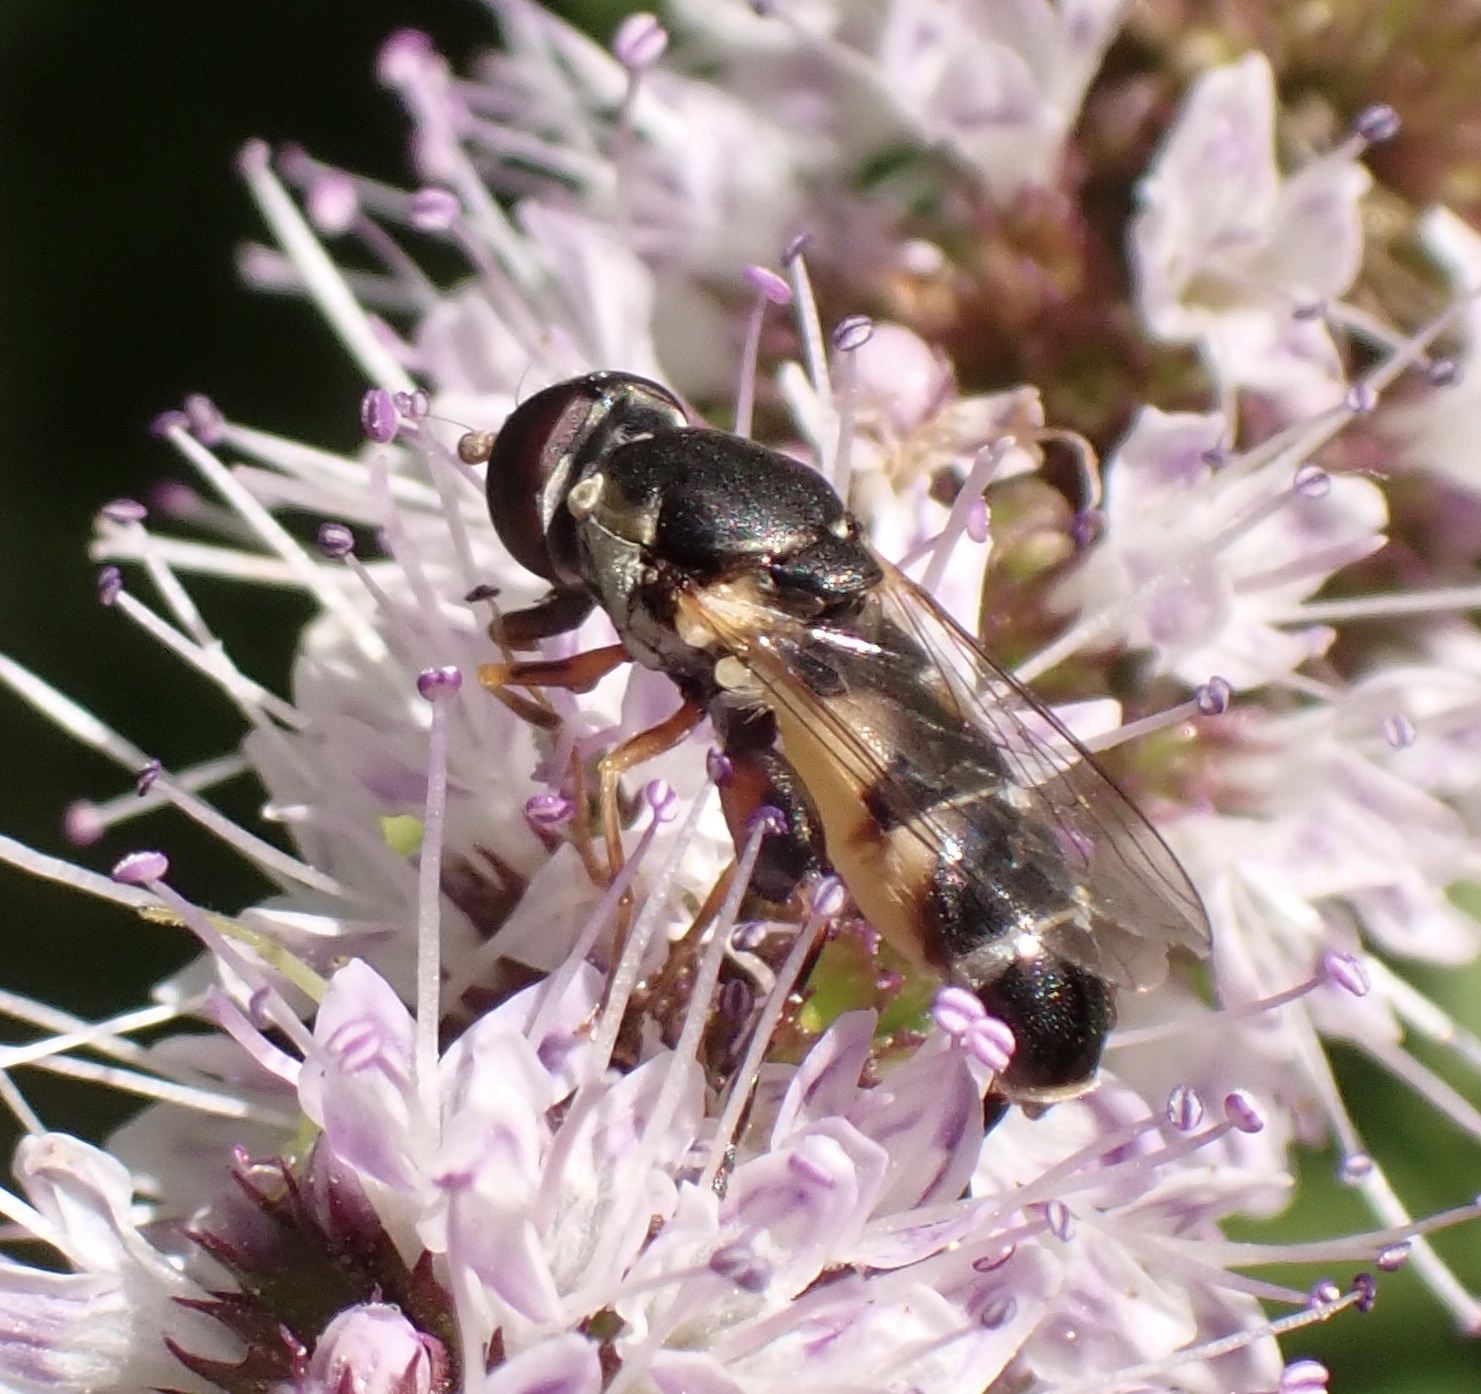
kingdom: Animalia
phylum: Arthropoda
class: Insecta
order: Diptera
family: Syrphidae
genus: Syritta
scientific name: Syritta pipiens
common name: Hover fly
